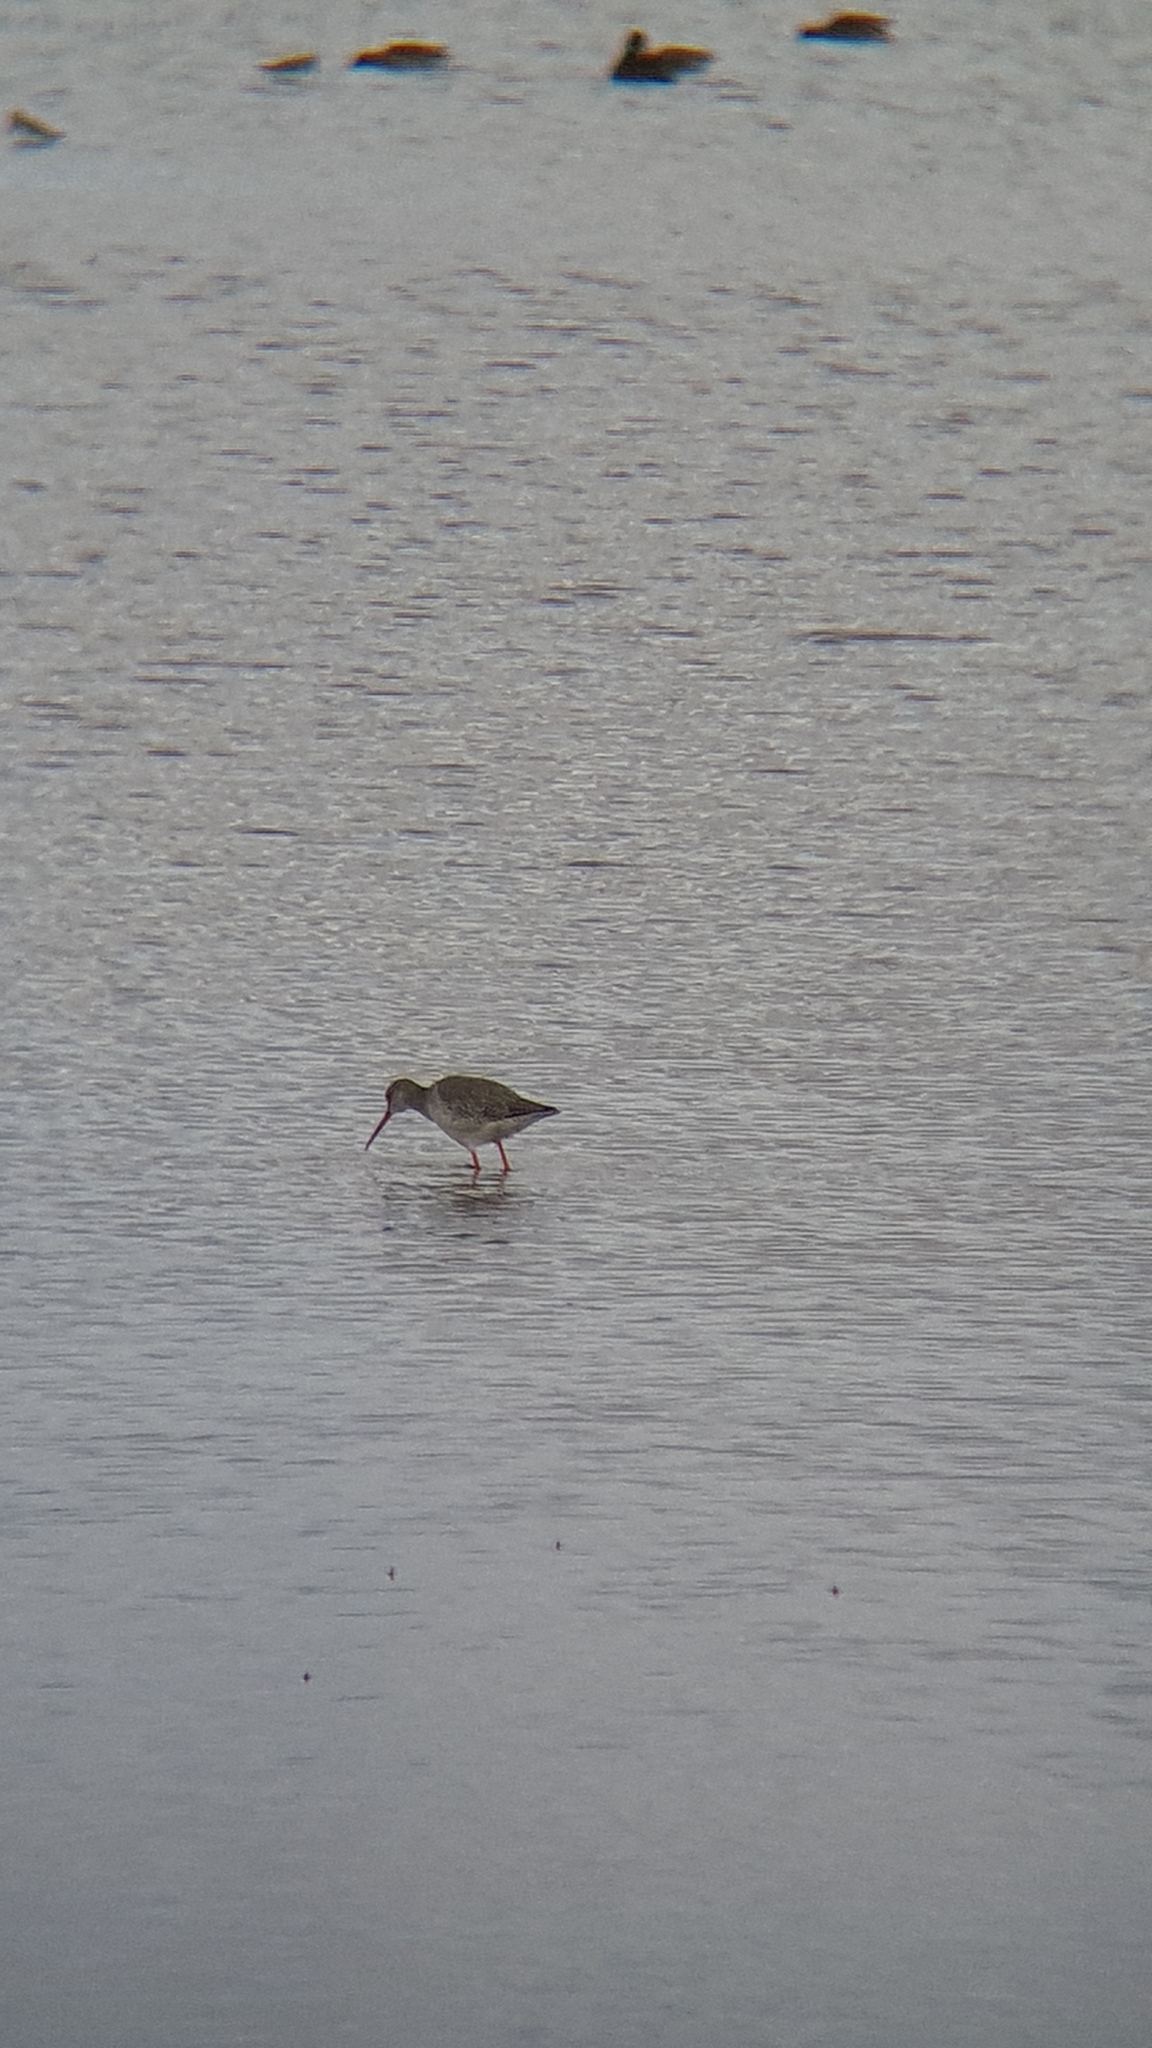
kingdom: Animalia
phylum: Chordata
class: Aves
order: Charadriiformes
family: Scolopacidae
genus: Tringa
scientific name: Tringa erythropus
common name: Spotted redshank
